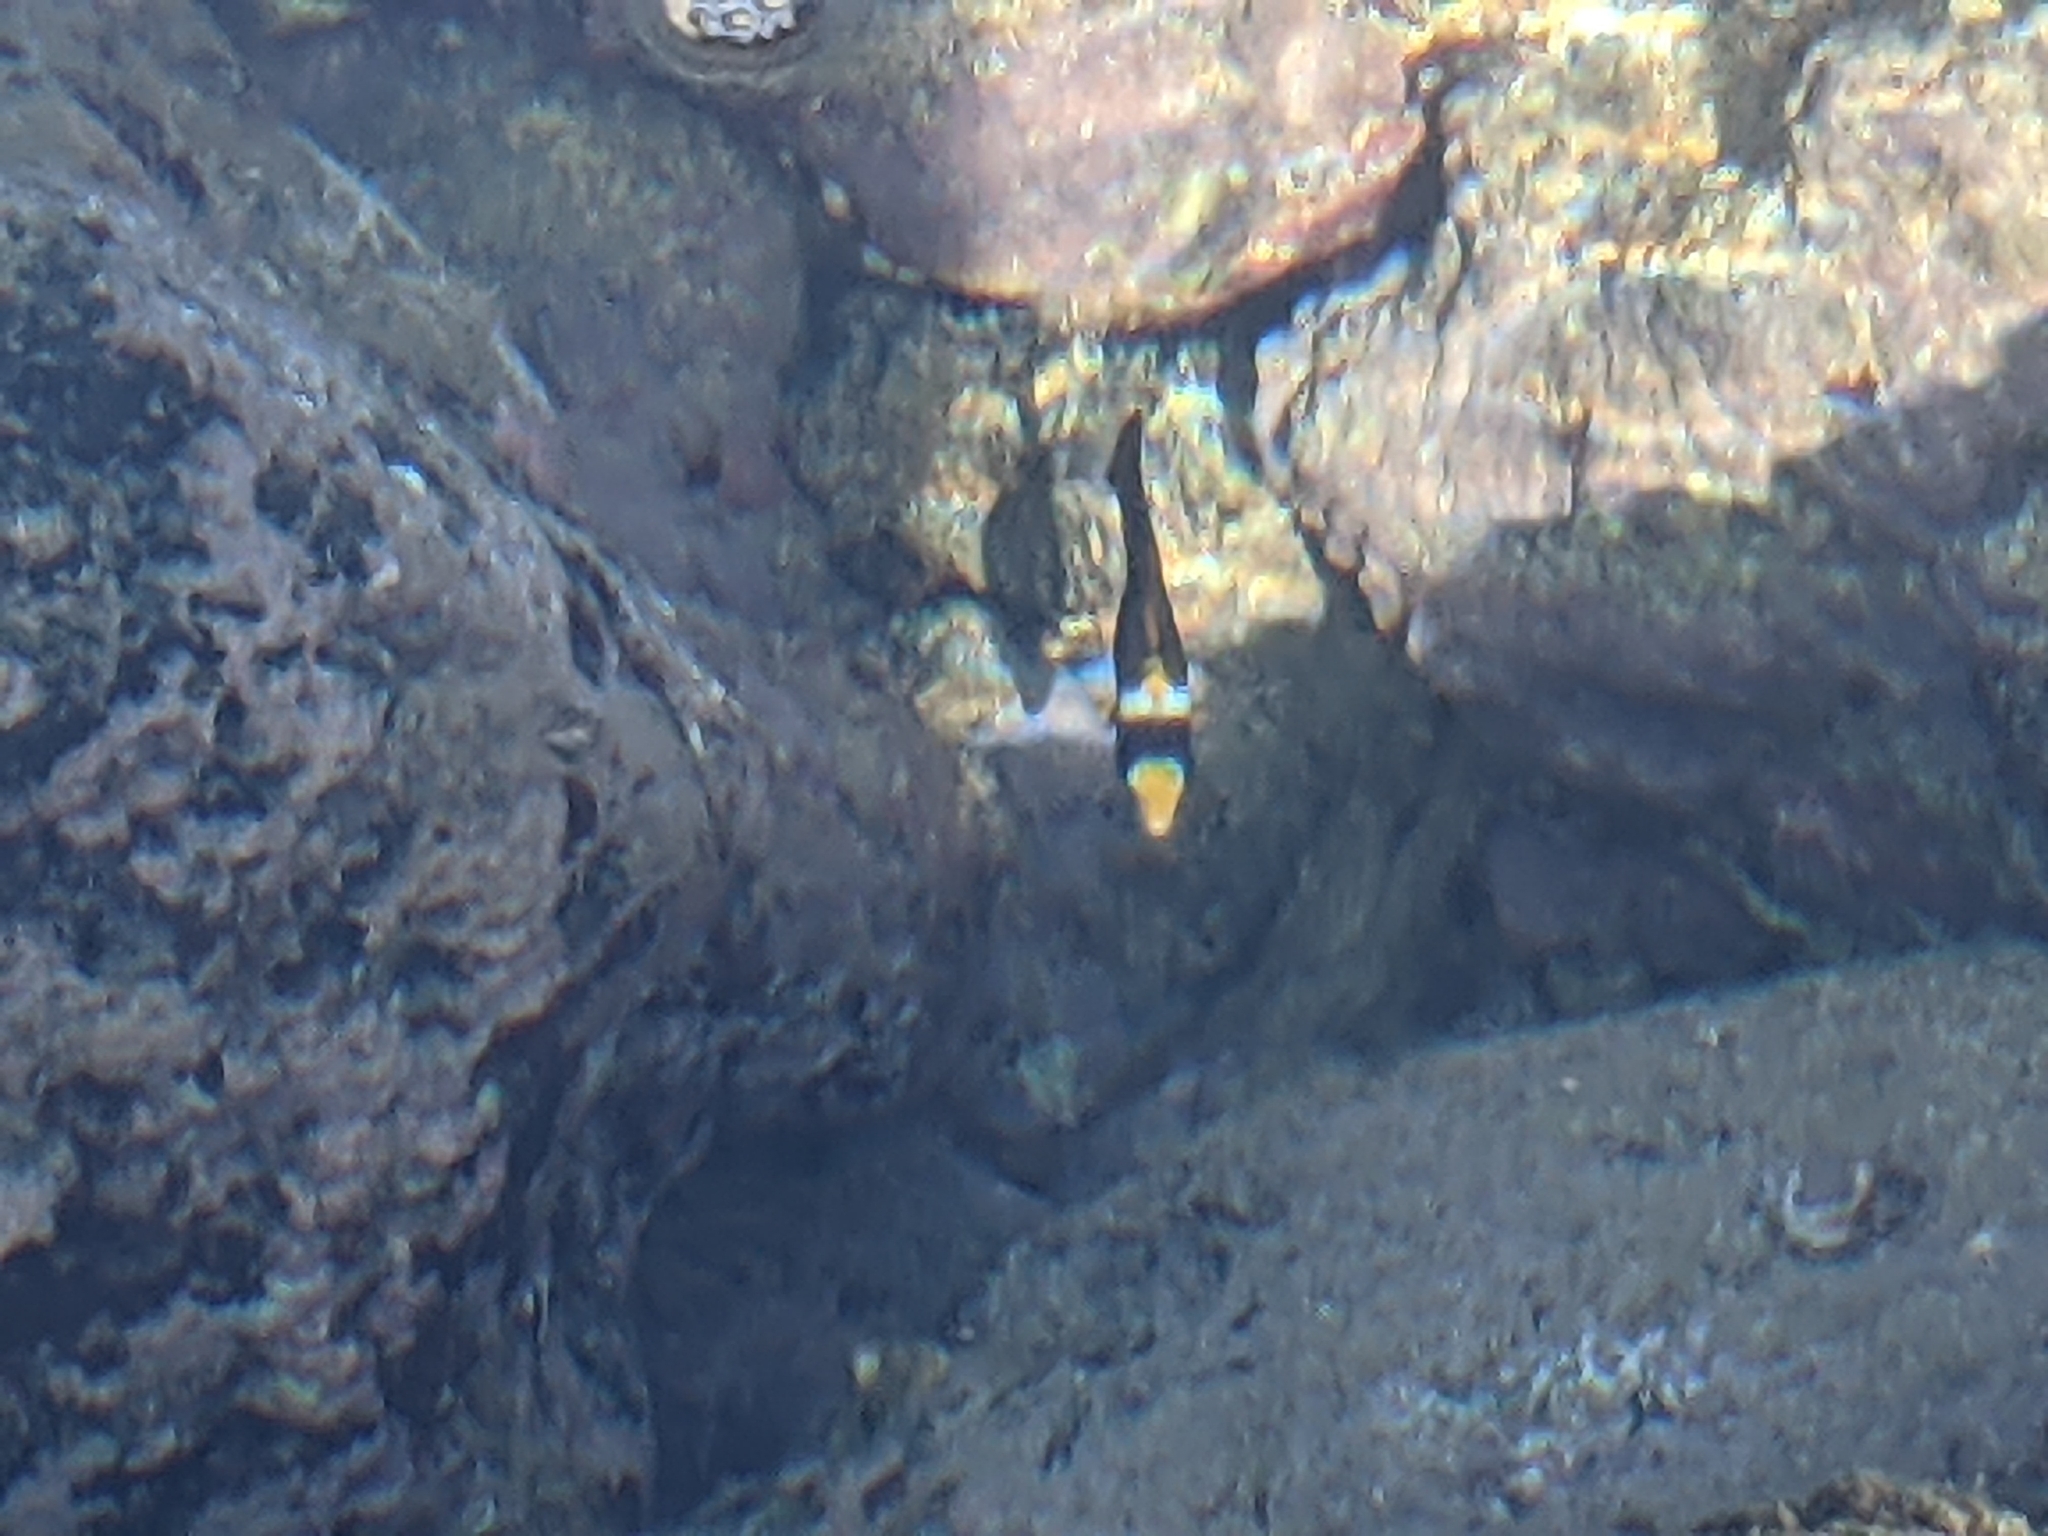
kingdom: Animalia
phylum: Chordata
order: Perciformes
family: Chaetodontidae
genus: Chaetodon
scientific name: Chaetodon lunula
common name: Raccoon butterflyfish
